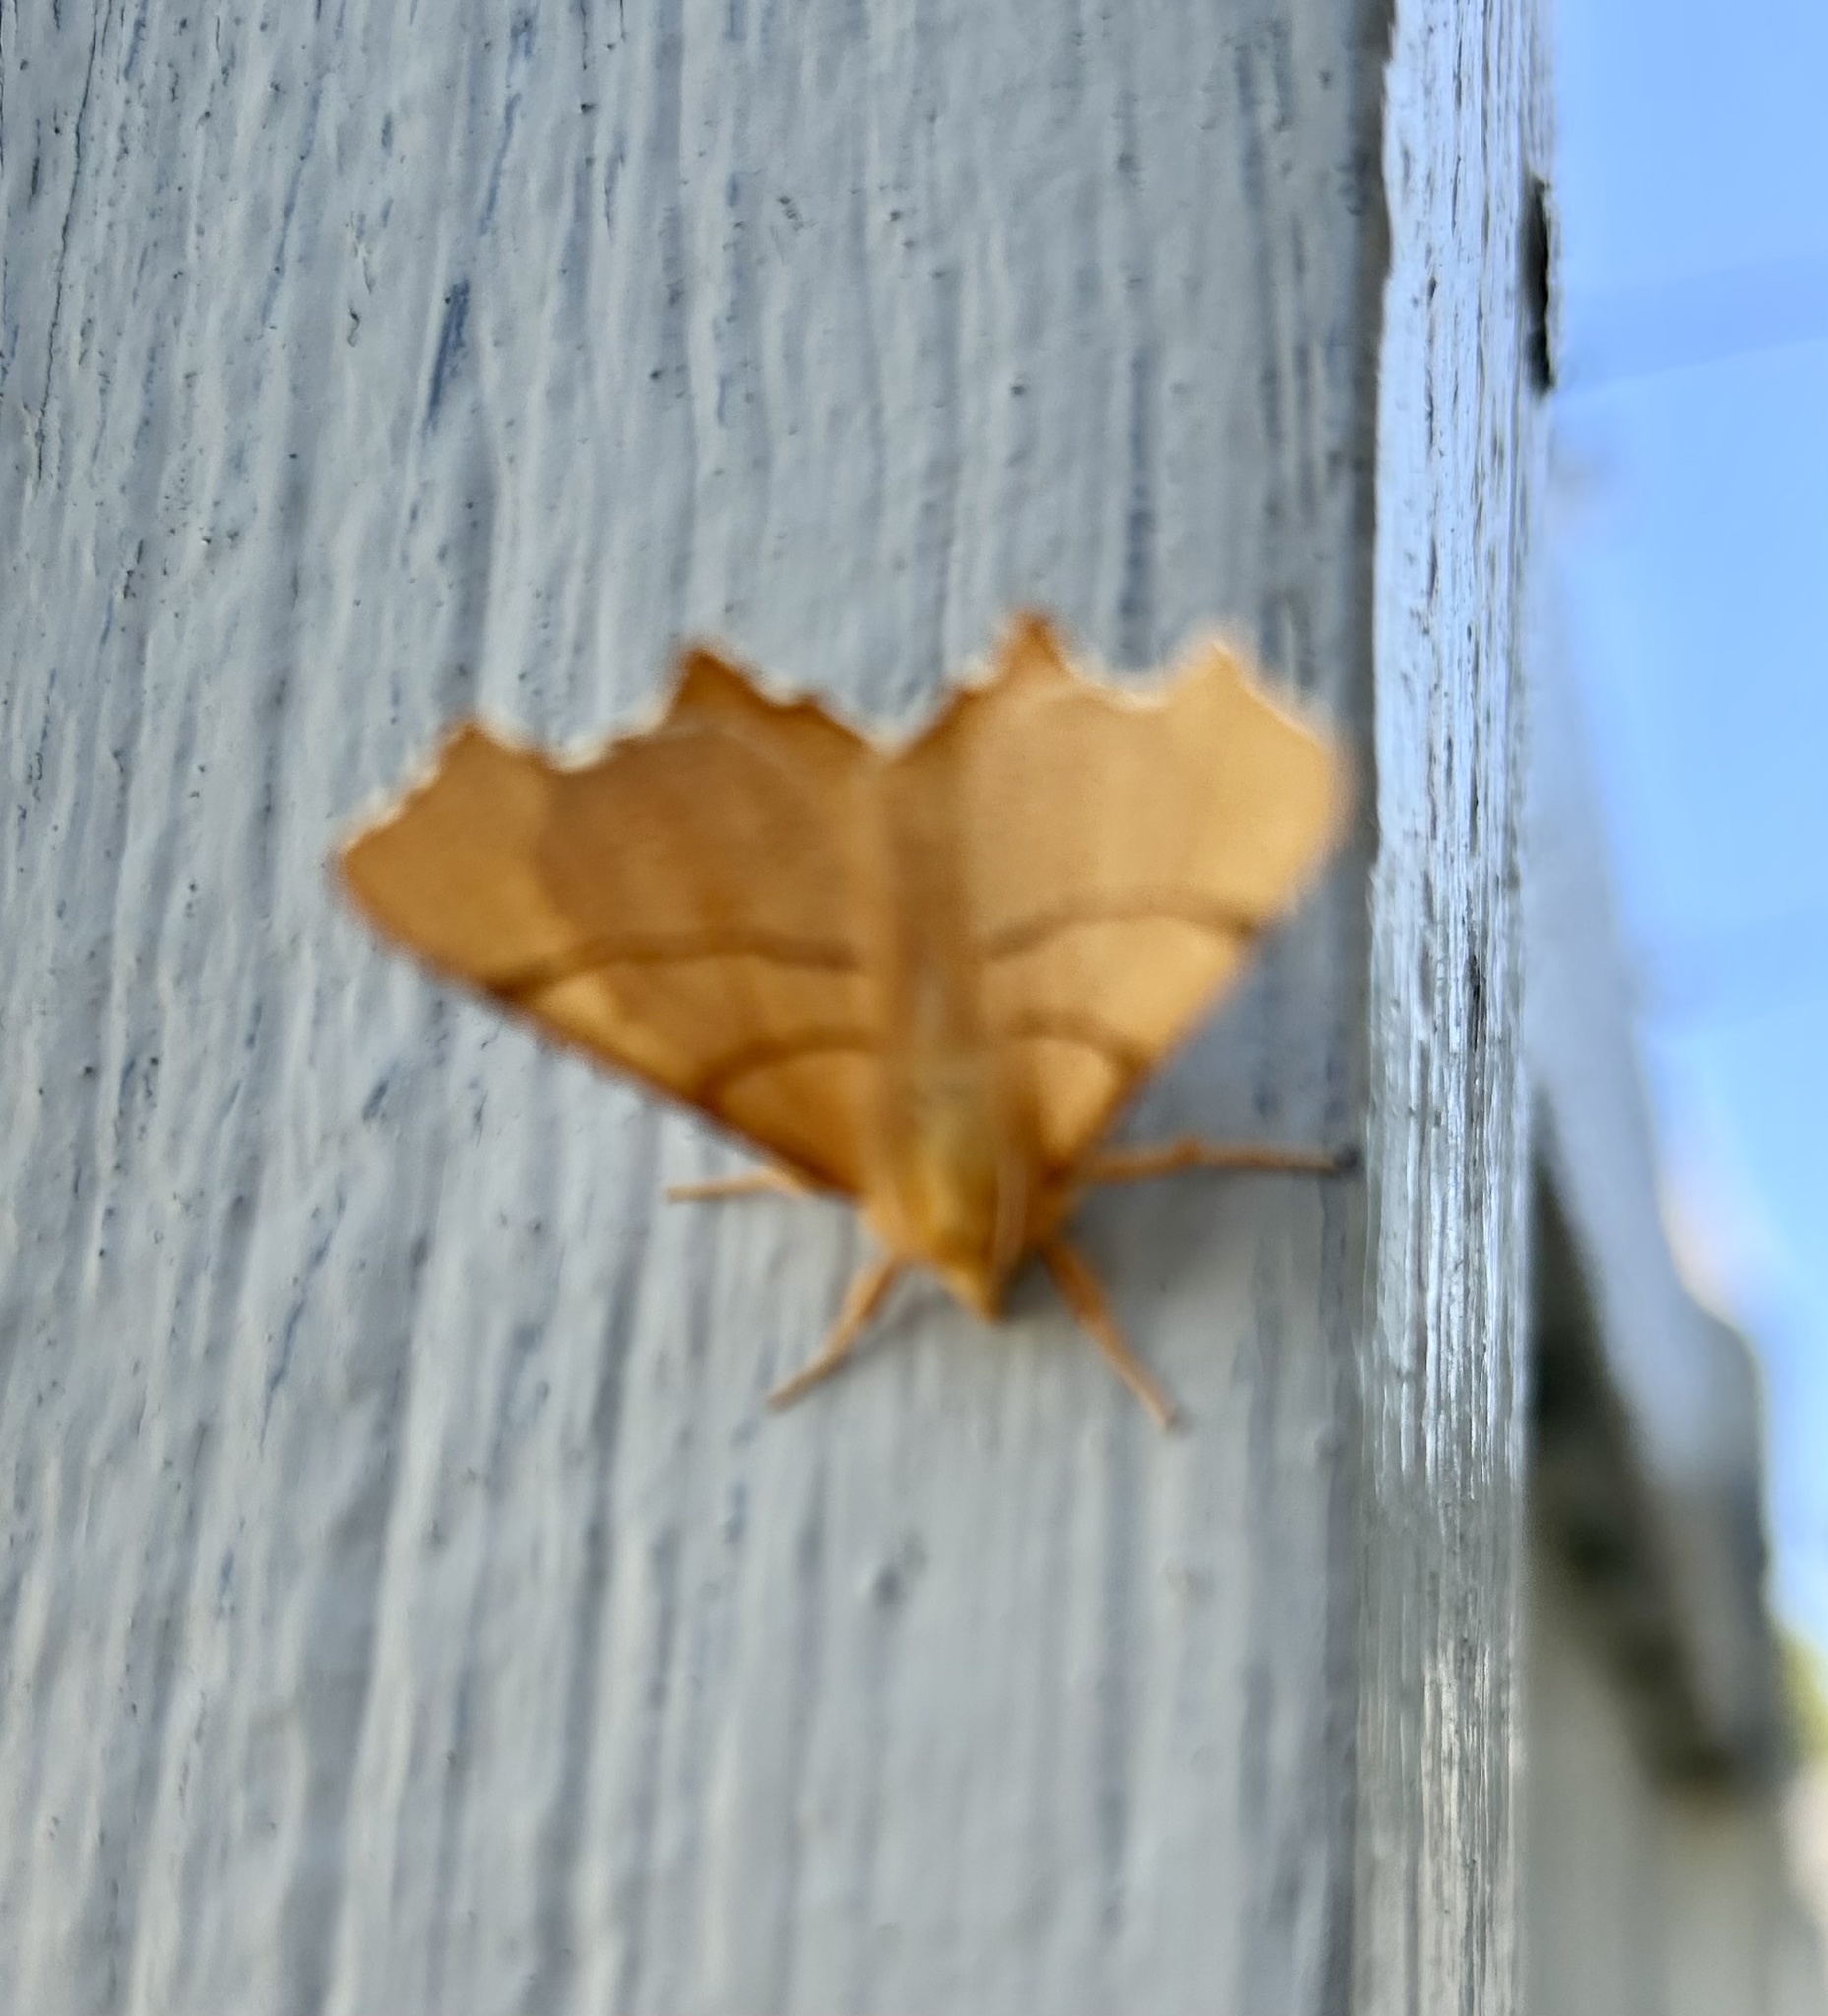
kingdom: Animalia
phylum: Arthropoda
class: Insecta
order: Lepidoptera
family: Geometridae
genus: Ennomos
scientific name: Ennomos erosaria
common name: September thorn
